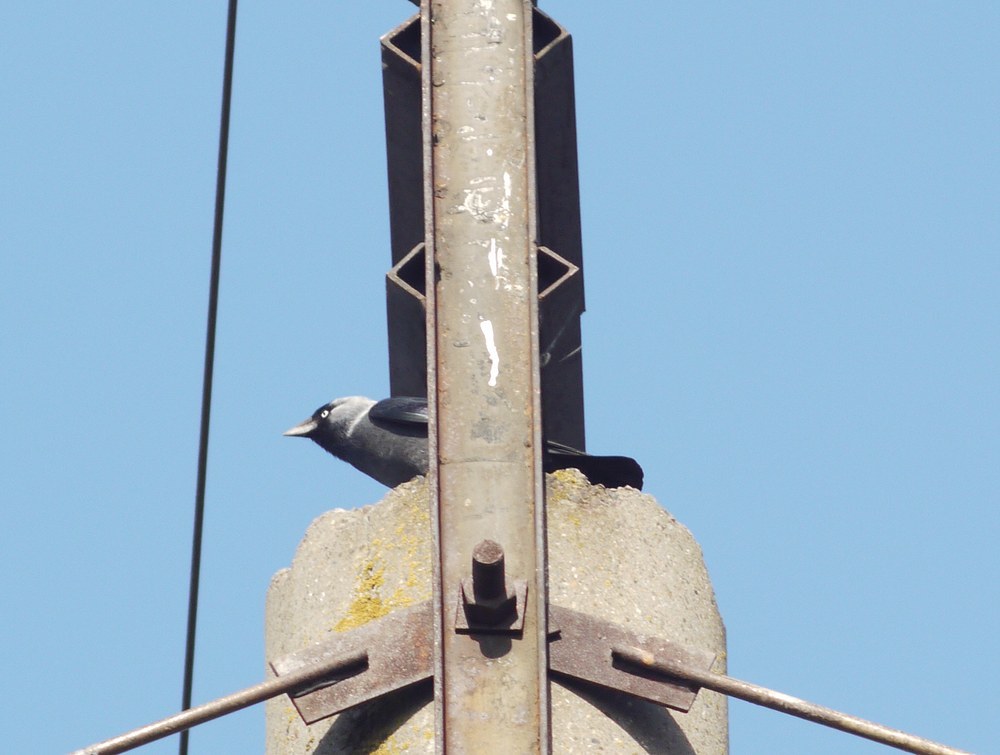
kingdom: Animalia
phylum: Chordata
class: Aves
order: Passeriformes
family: Corvidae
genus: Coloeus
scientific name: Coloeus monedula
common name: Western jackdaw
